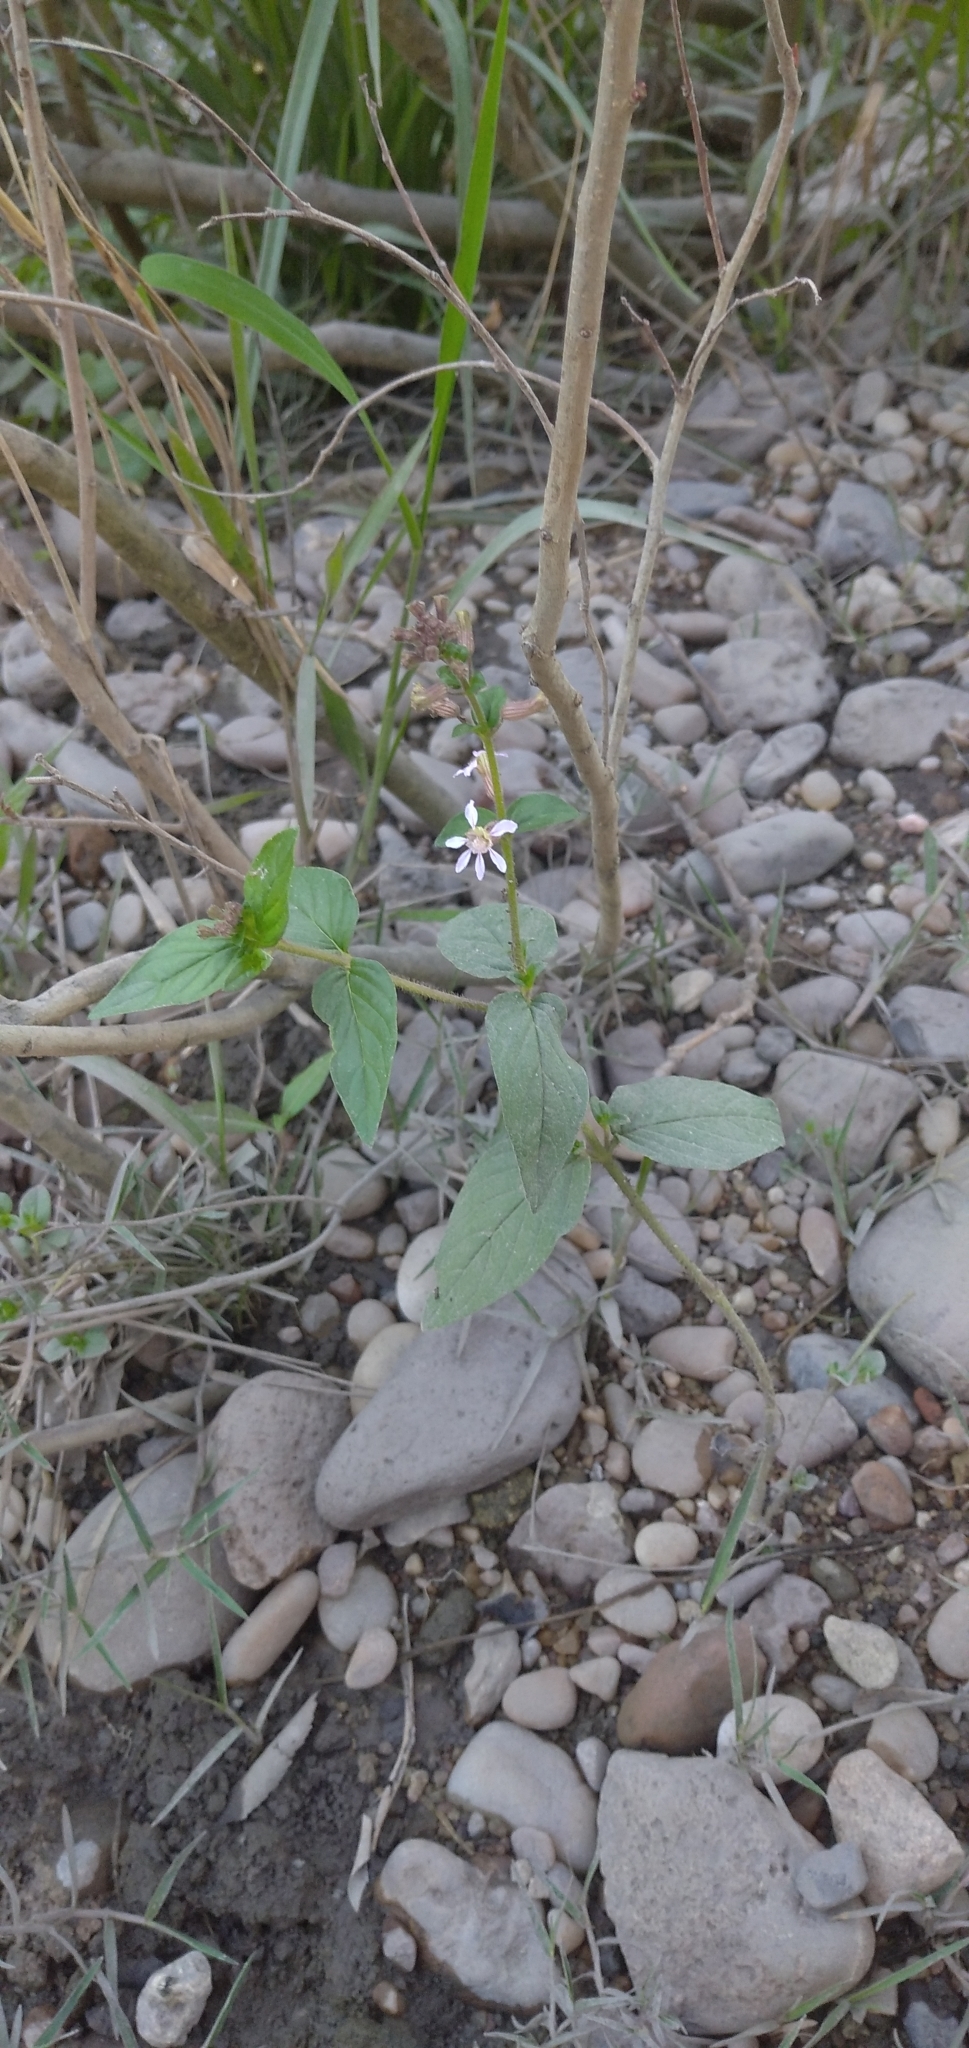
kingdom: Plantae
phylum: Tracheophyta
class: Magnoliopsida
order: Myrtales
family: Lythraceae
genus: Cuphea
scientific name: Cuphea racemosa
